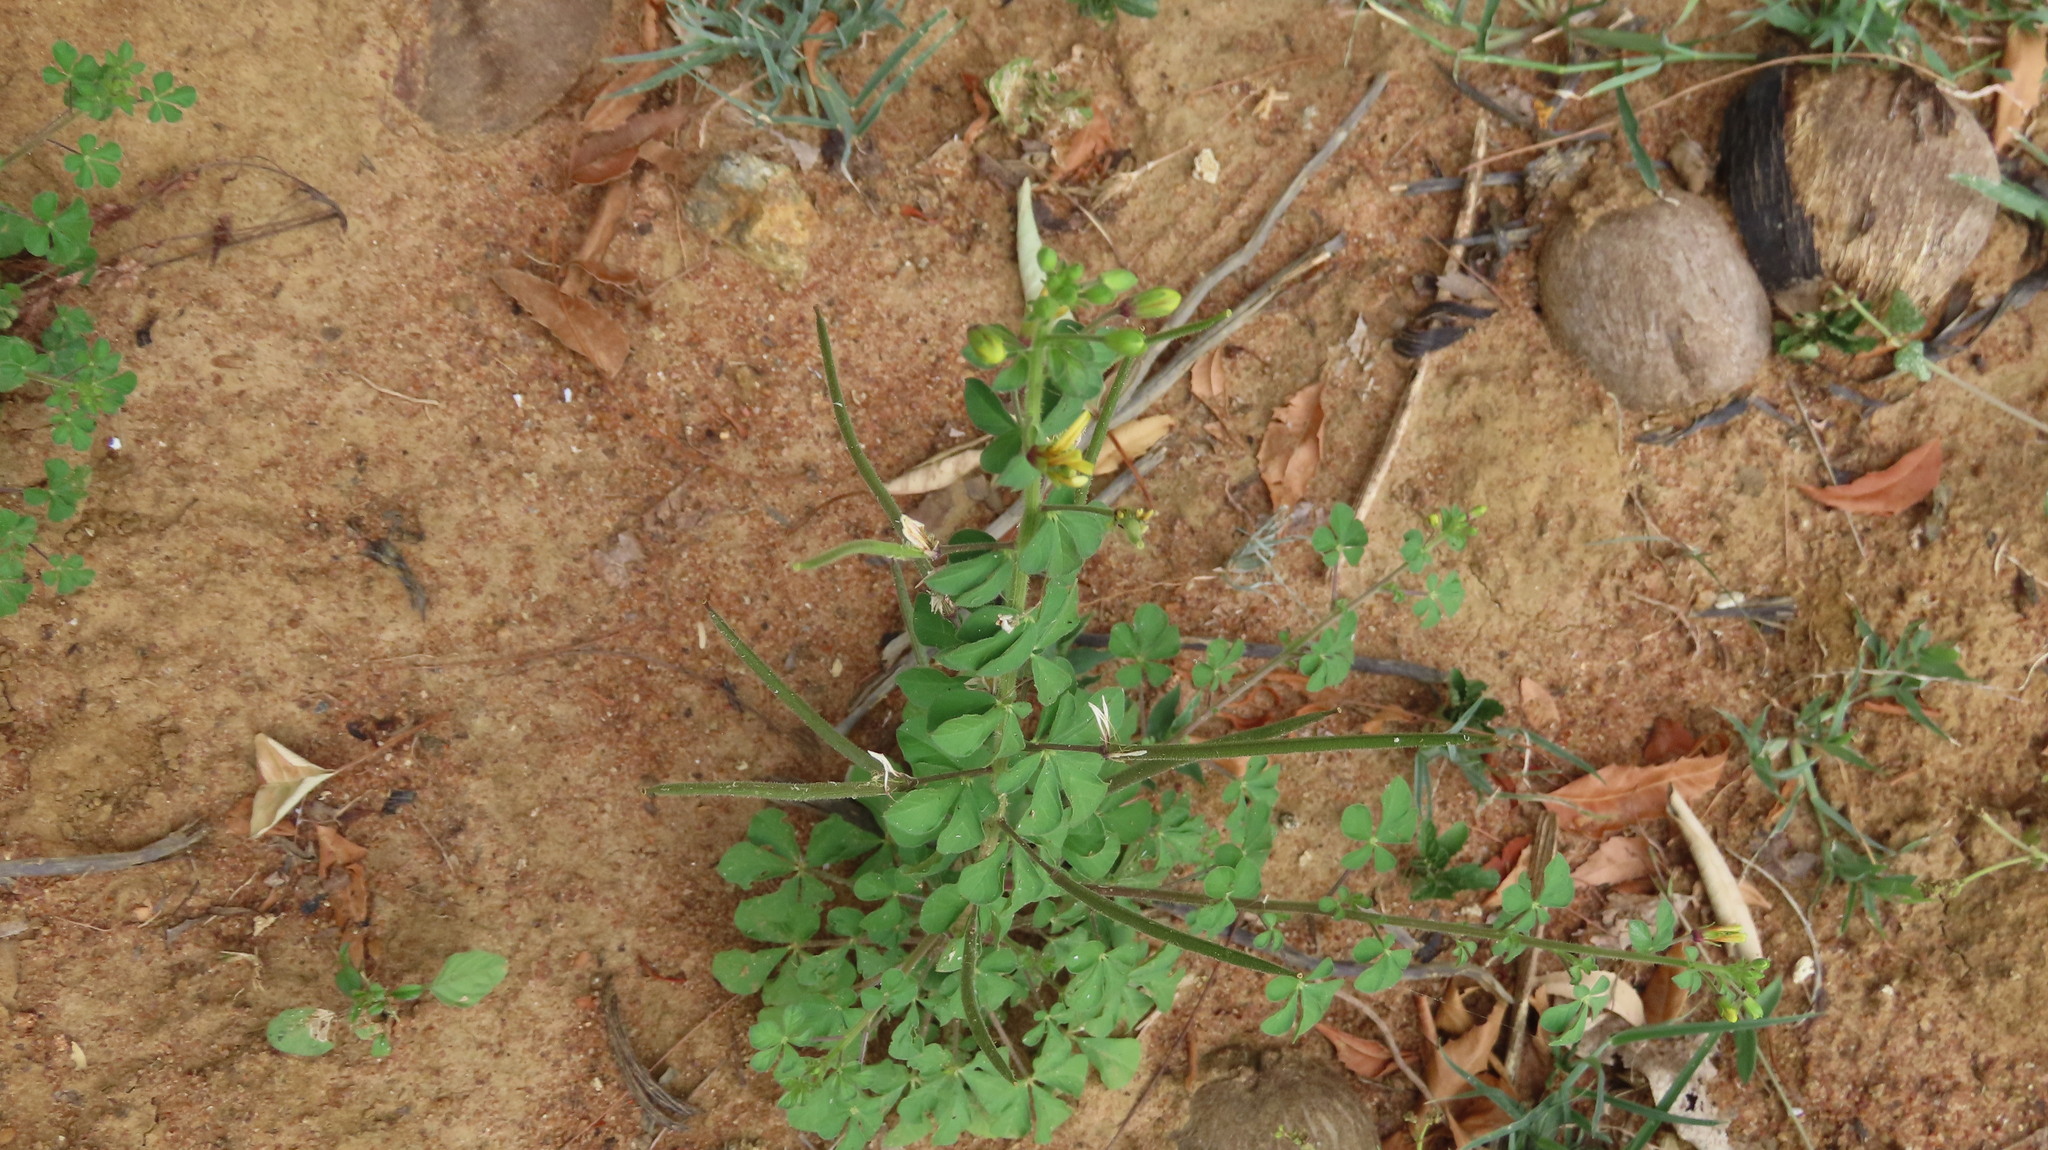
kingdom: Plantae
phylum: Tracheophyta
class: Magnoliopsida
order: Brassicales
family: Cleomaceae
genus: Arivela
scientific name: Arivela viscosa
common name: Asian spiderflower
